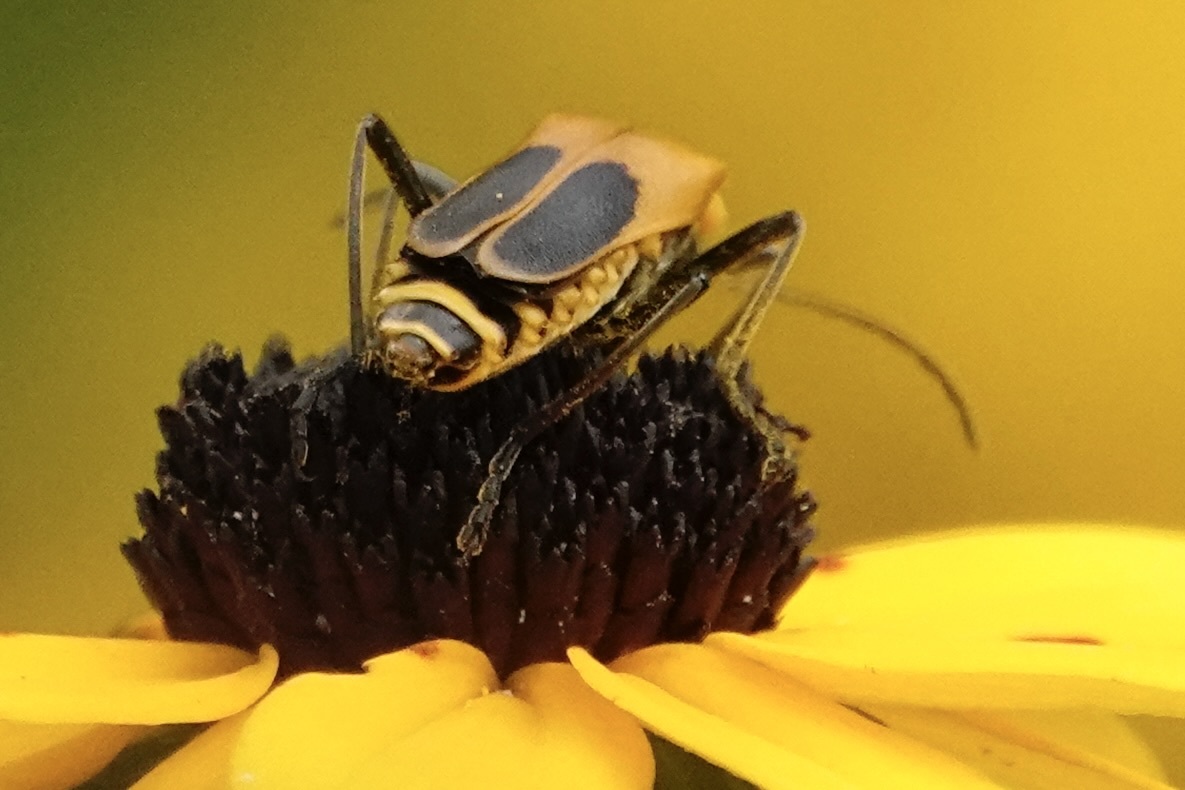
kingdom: Animalia
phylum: Arthropoda
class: Insecta
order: Coleoptera
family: Cantharidae
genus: Chauliognathus
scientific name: Chauliognathus pensylvanicus
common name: Goldenrod soldier beetle
